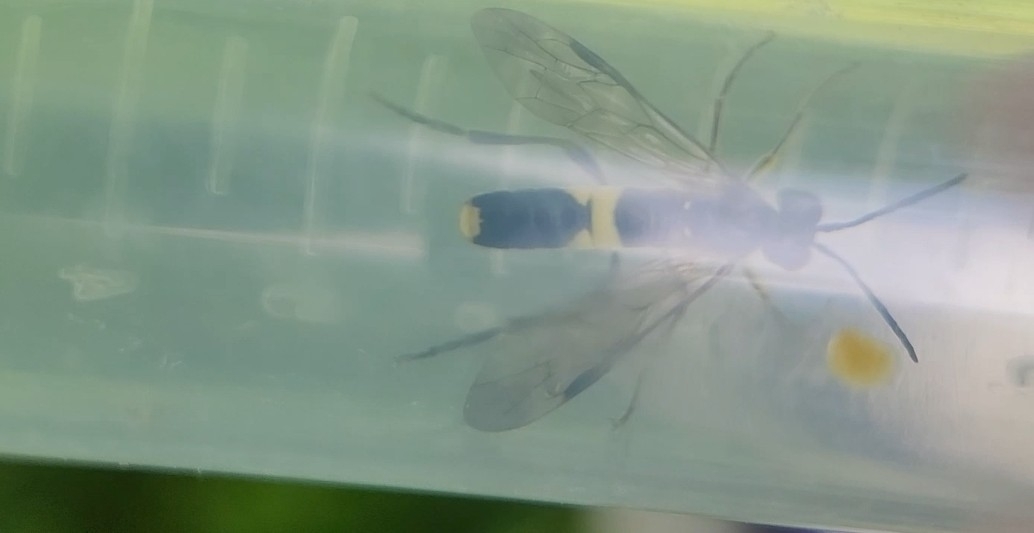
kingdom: Animalia
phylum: Arthropoda
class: Insecta
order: Hymenoptera
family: Tenthredinidae
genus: Tenthredo
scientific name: Tenthredo temula
